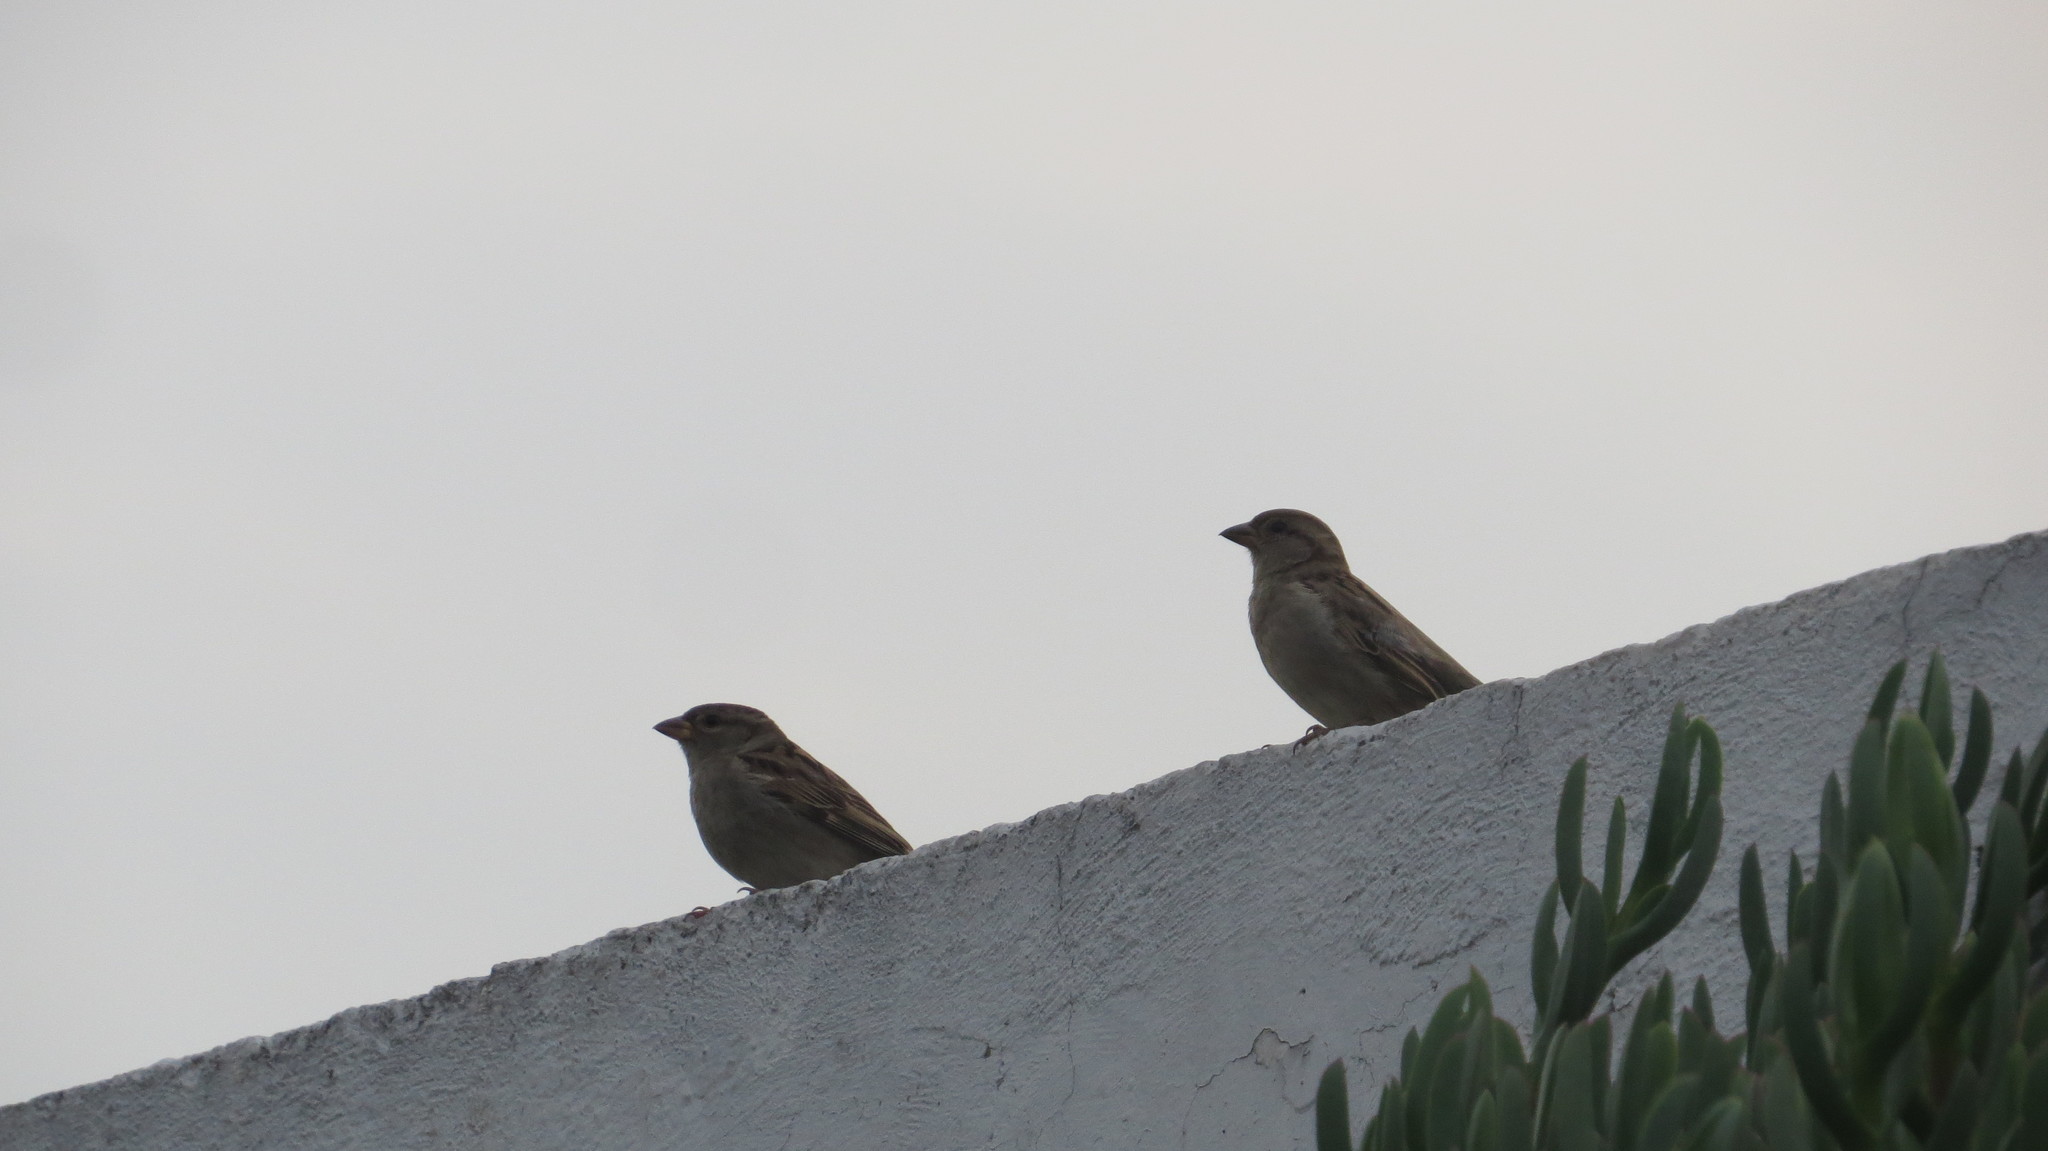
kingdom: Animalia
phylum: Chordata
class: Aves
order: Passeriformes
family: Passeridae
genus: Passer
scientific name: Passer domesticus
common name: House sparrow
